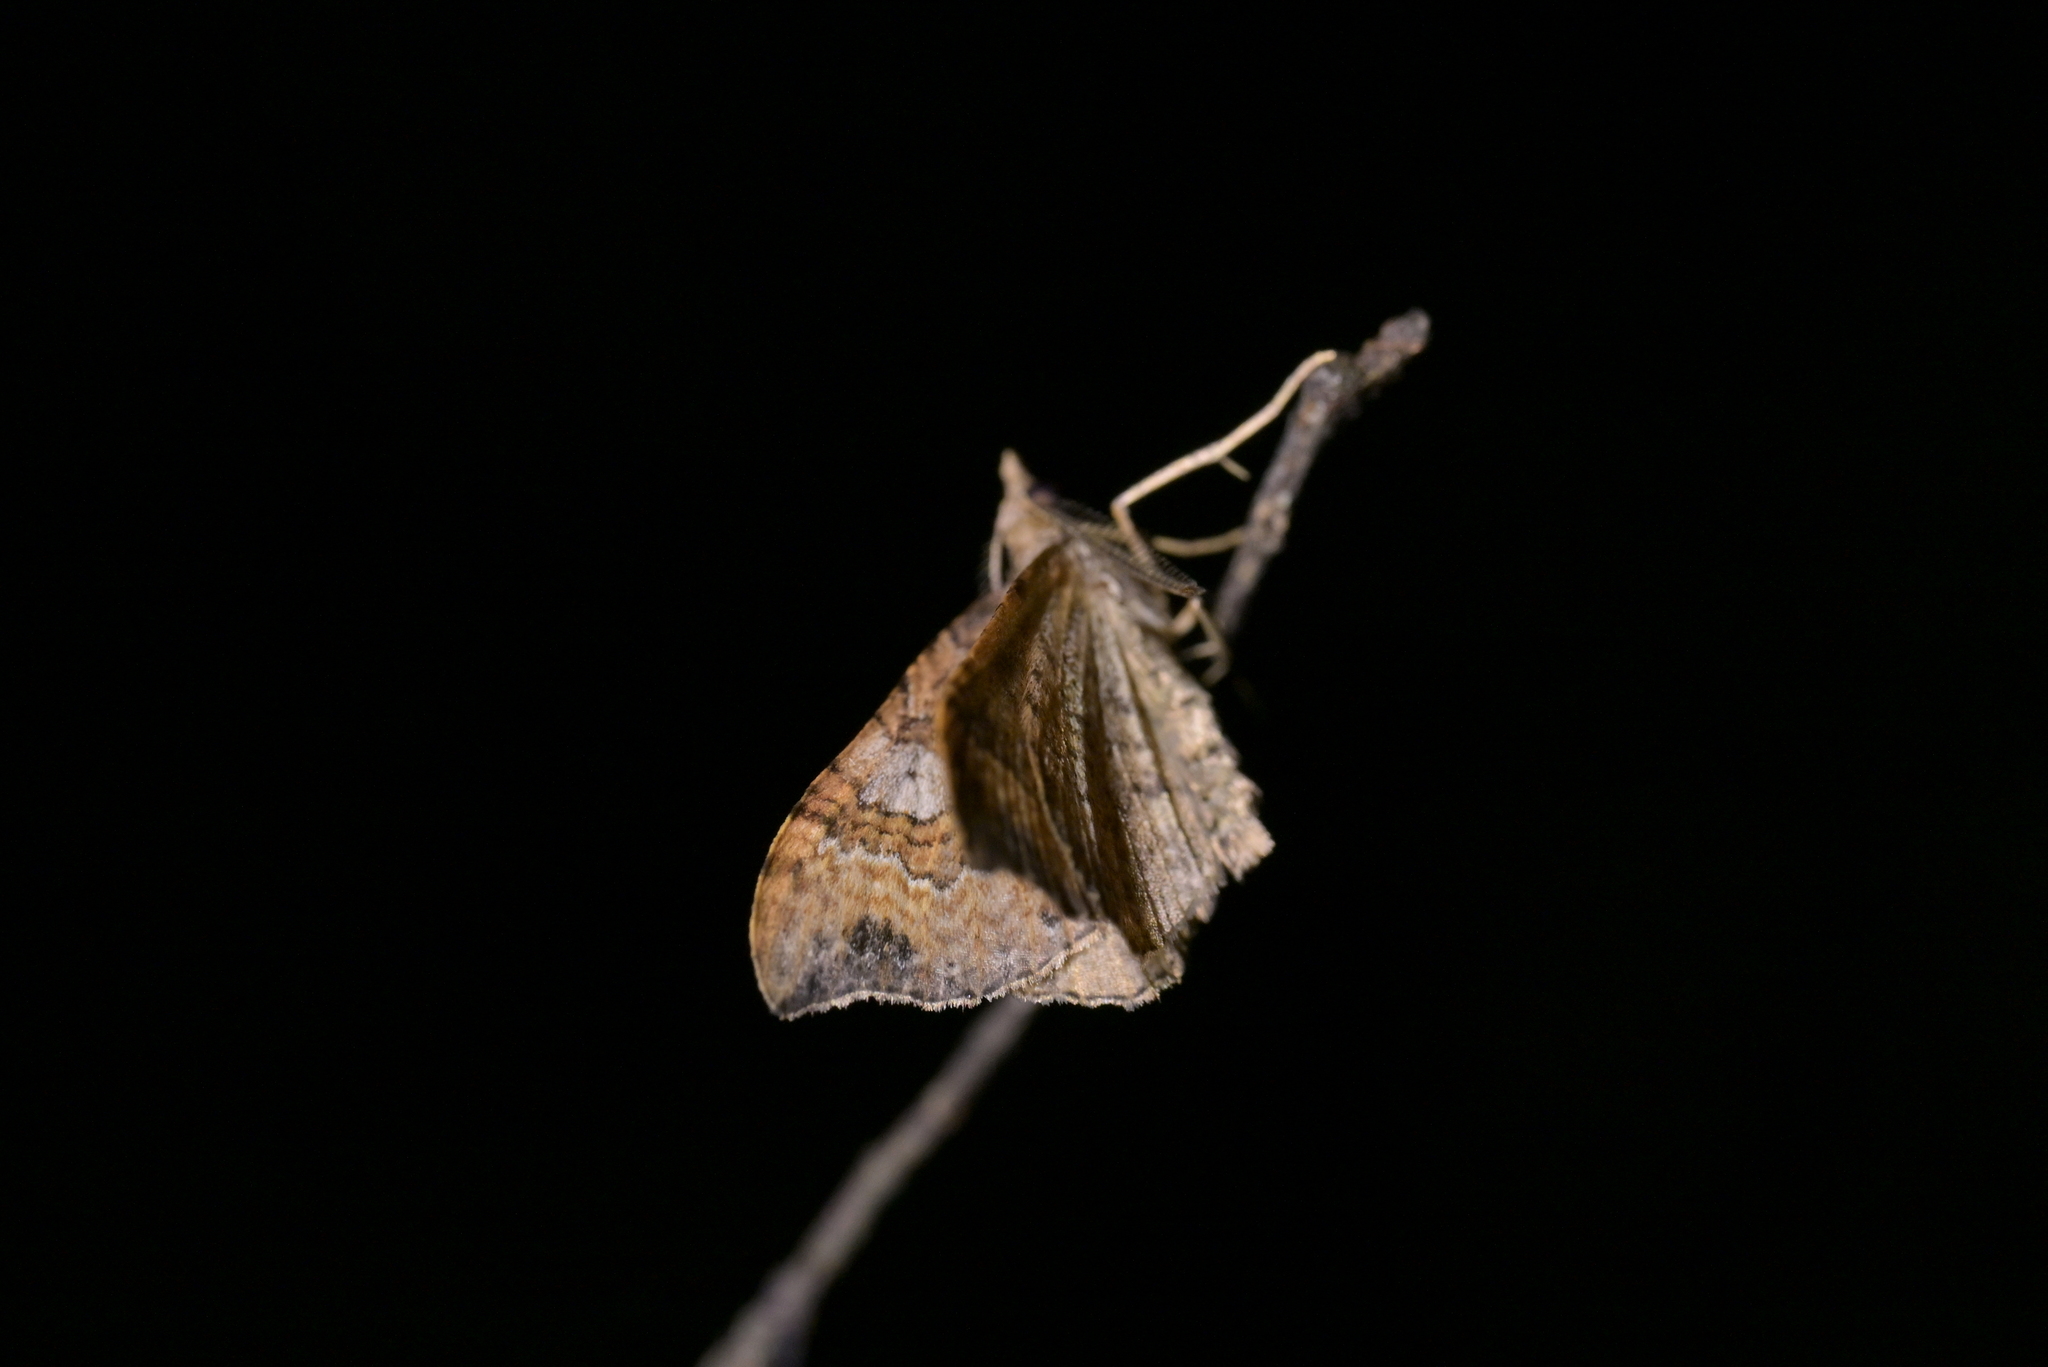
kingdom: Animalia
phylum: Arthropoda
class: Insecta
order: Lepidoptera
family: Geometridae
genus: Homodotis
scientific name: Homodotis megaspilata
